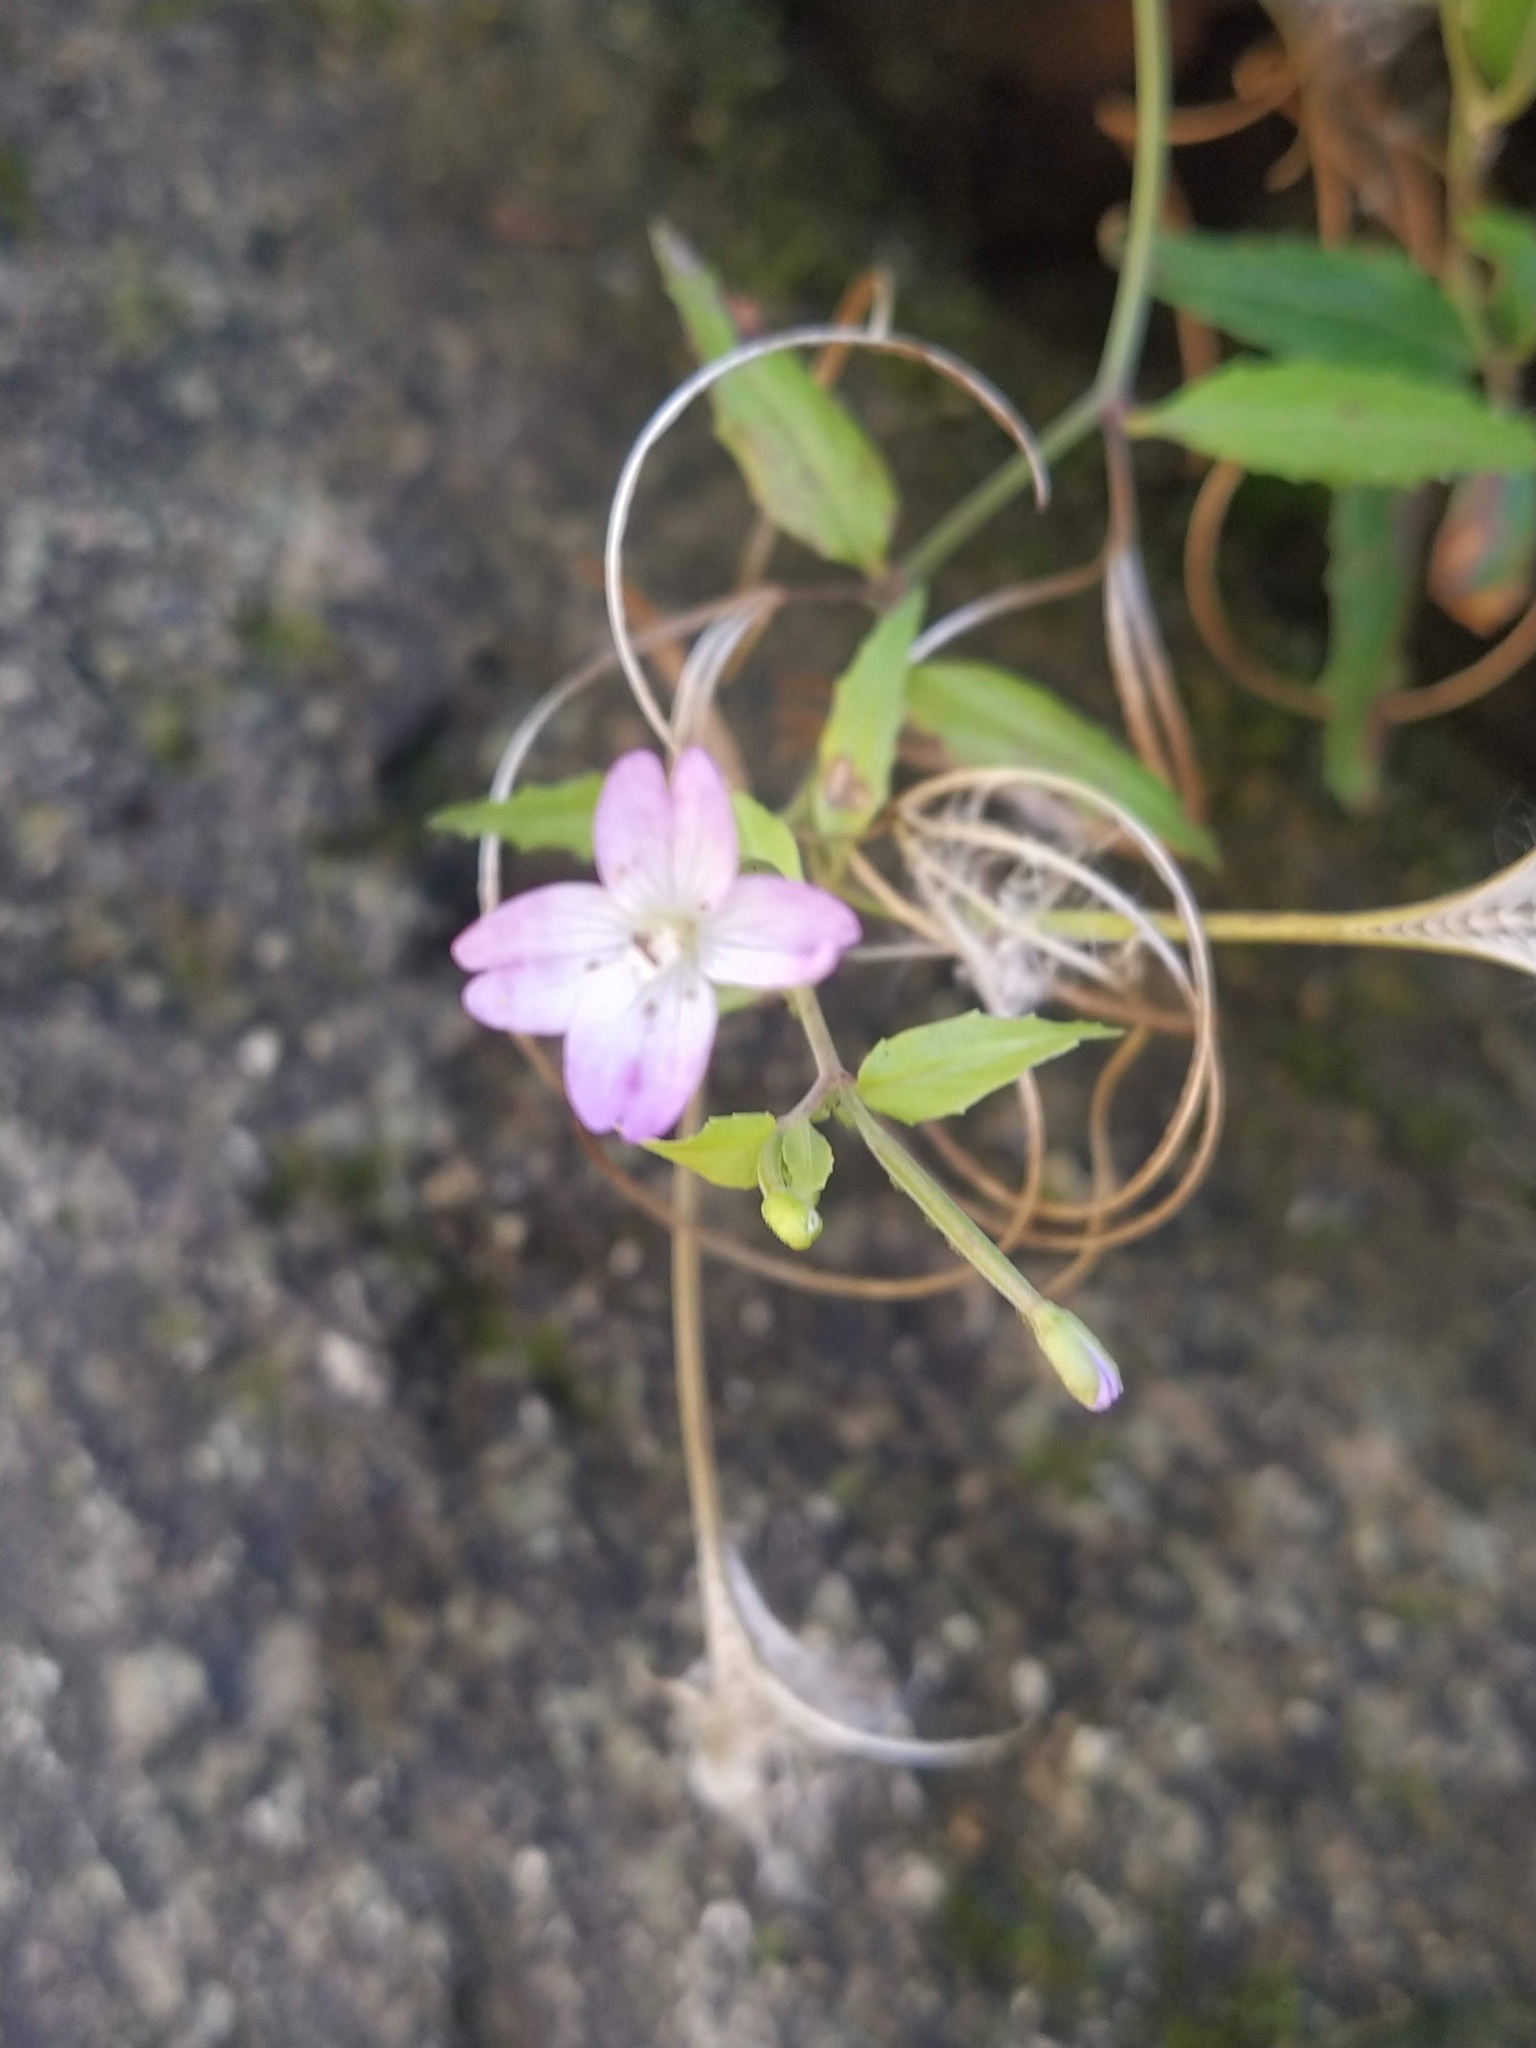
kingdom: Plantae
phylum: Tracheophyta
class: Magnoliopsida
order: Myrtales
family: Onagraceae
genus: Epilobium
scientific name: Epilobium ciliatum
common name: American willowherb
